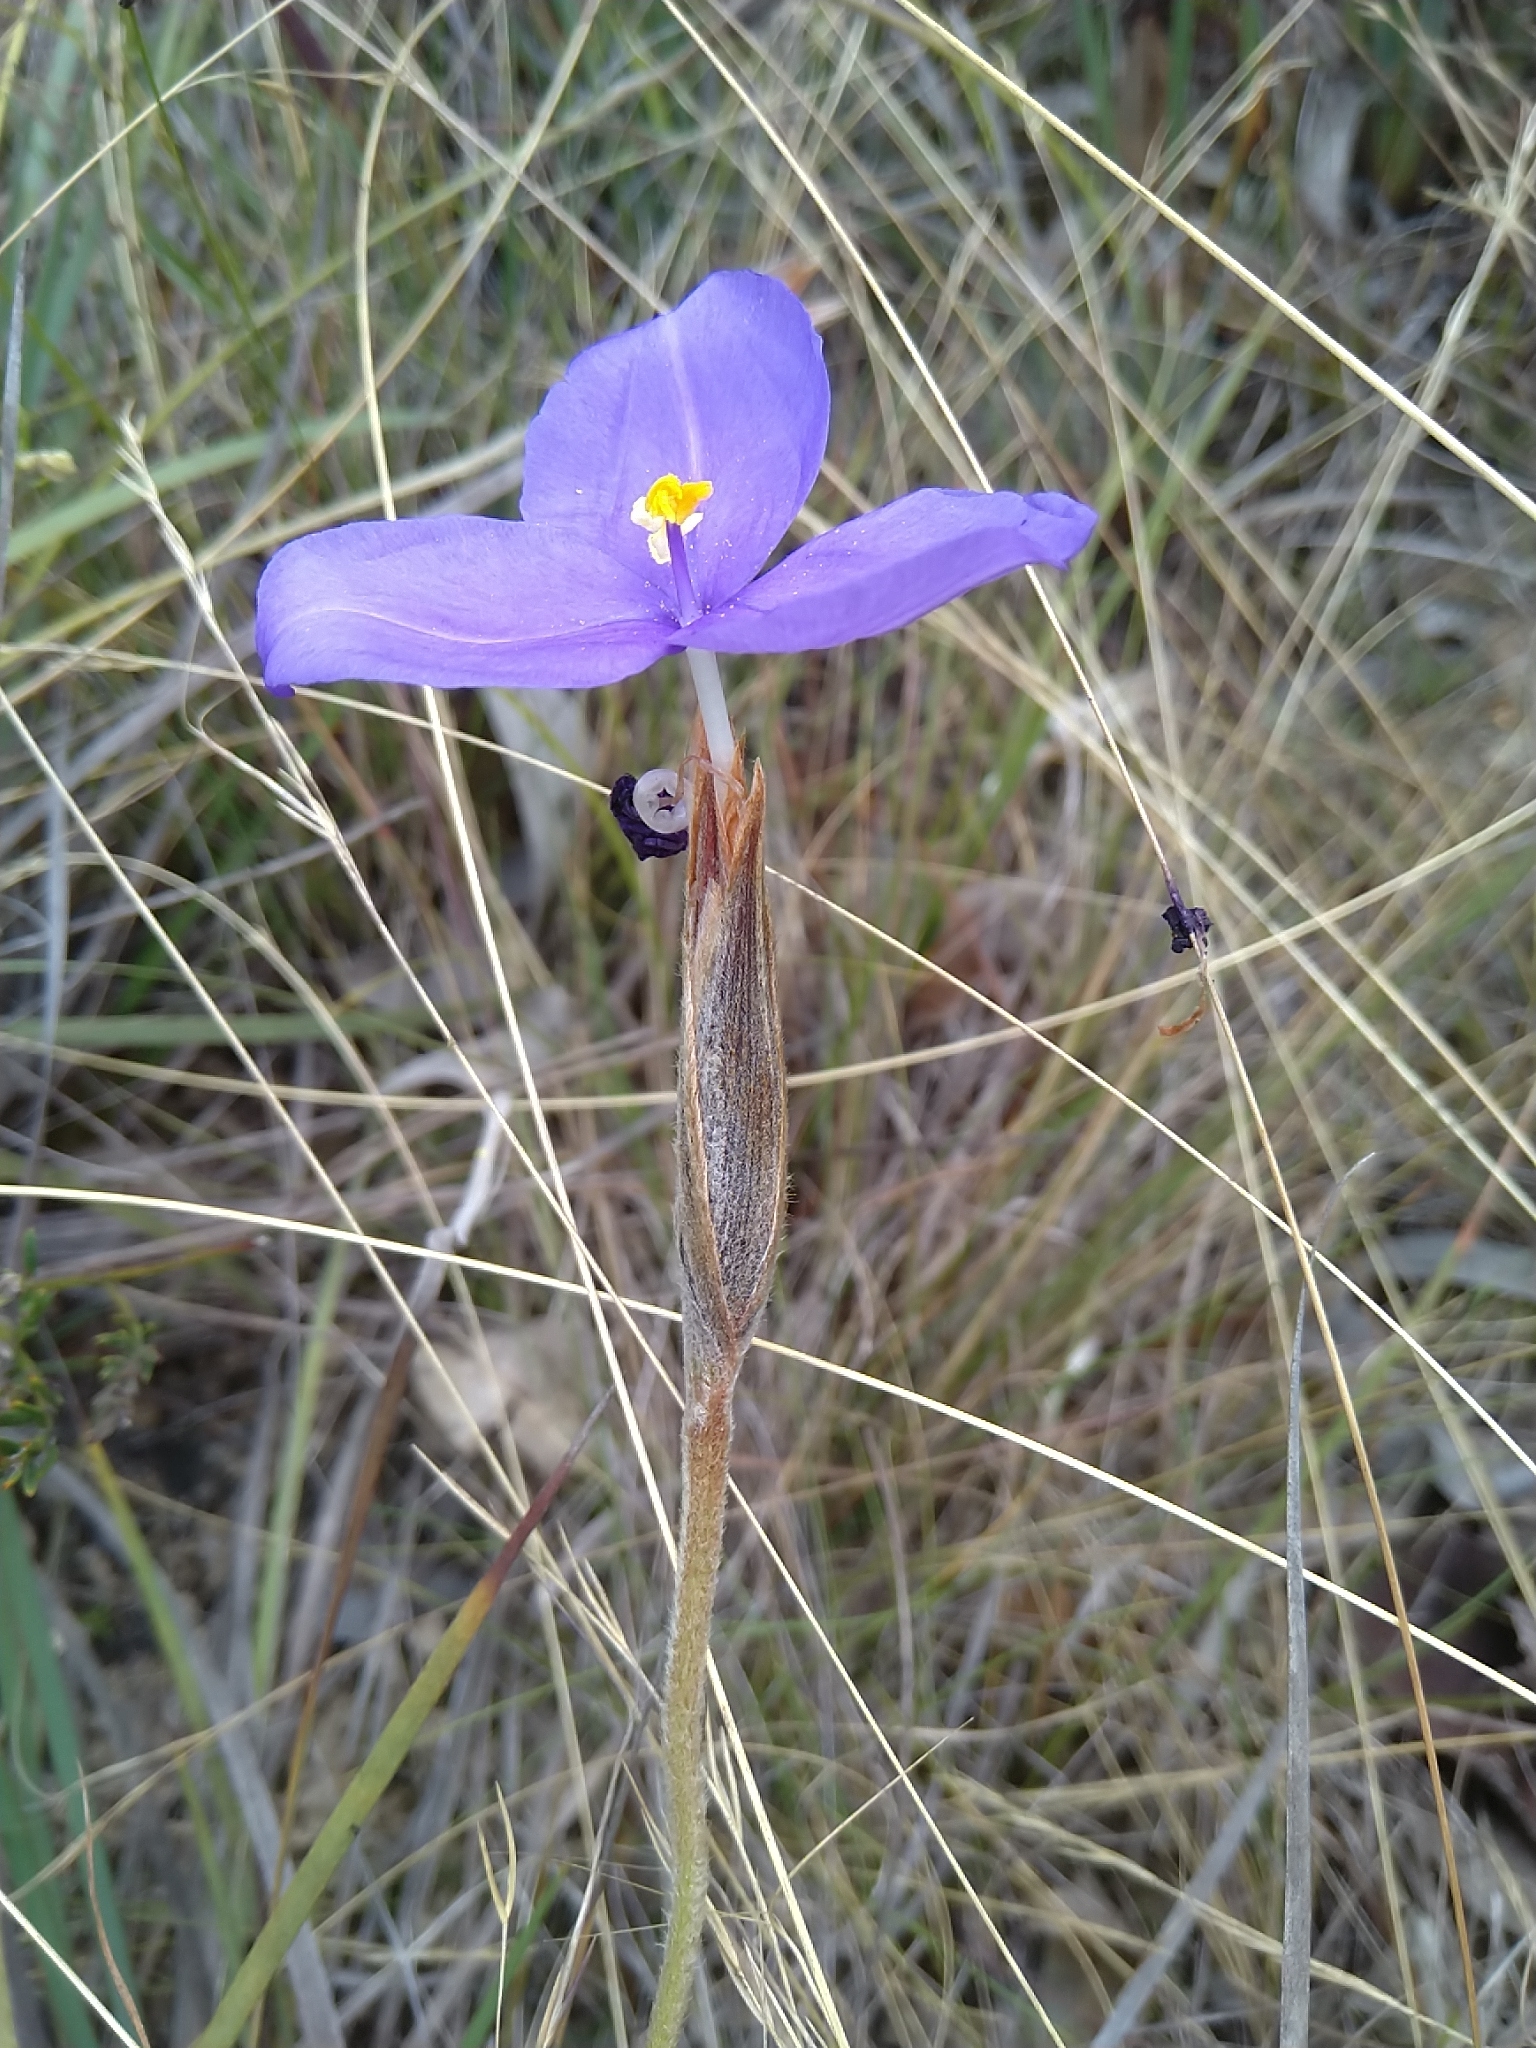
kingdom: Plantae
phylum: Tracheophyta
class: Liliopsida
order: Asparagales
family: Iridaceae
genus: Patersonia
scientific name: Patersonia sericea
